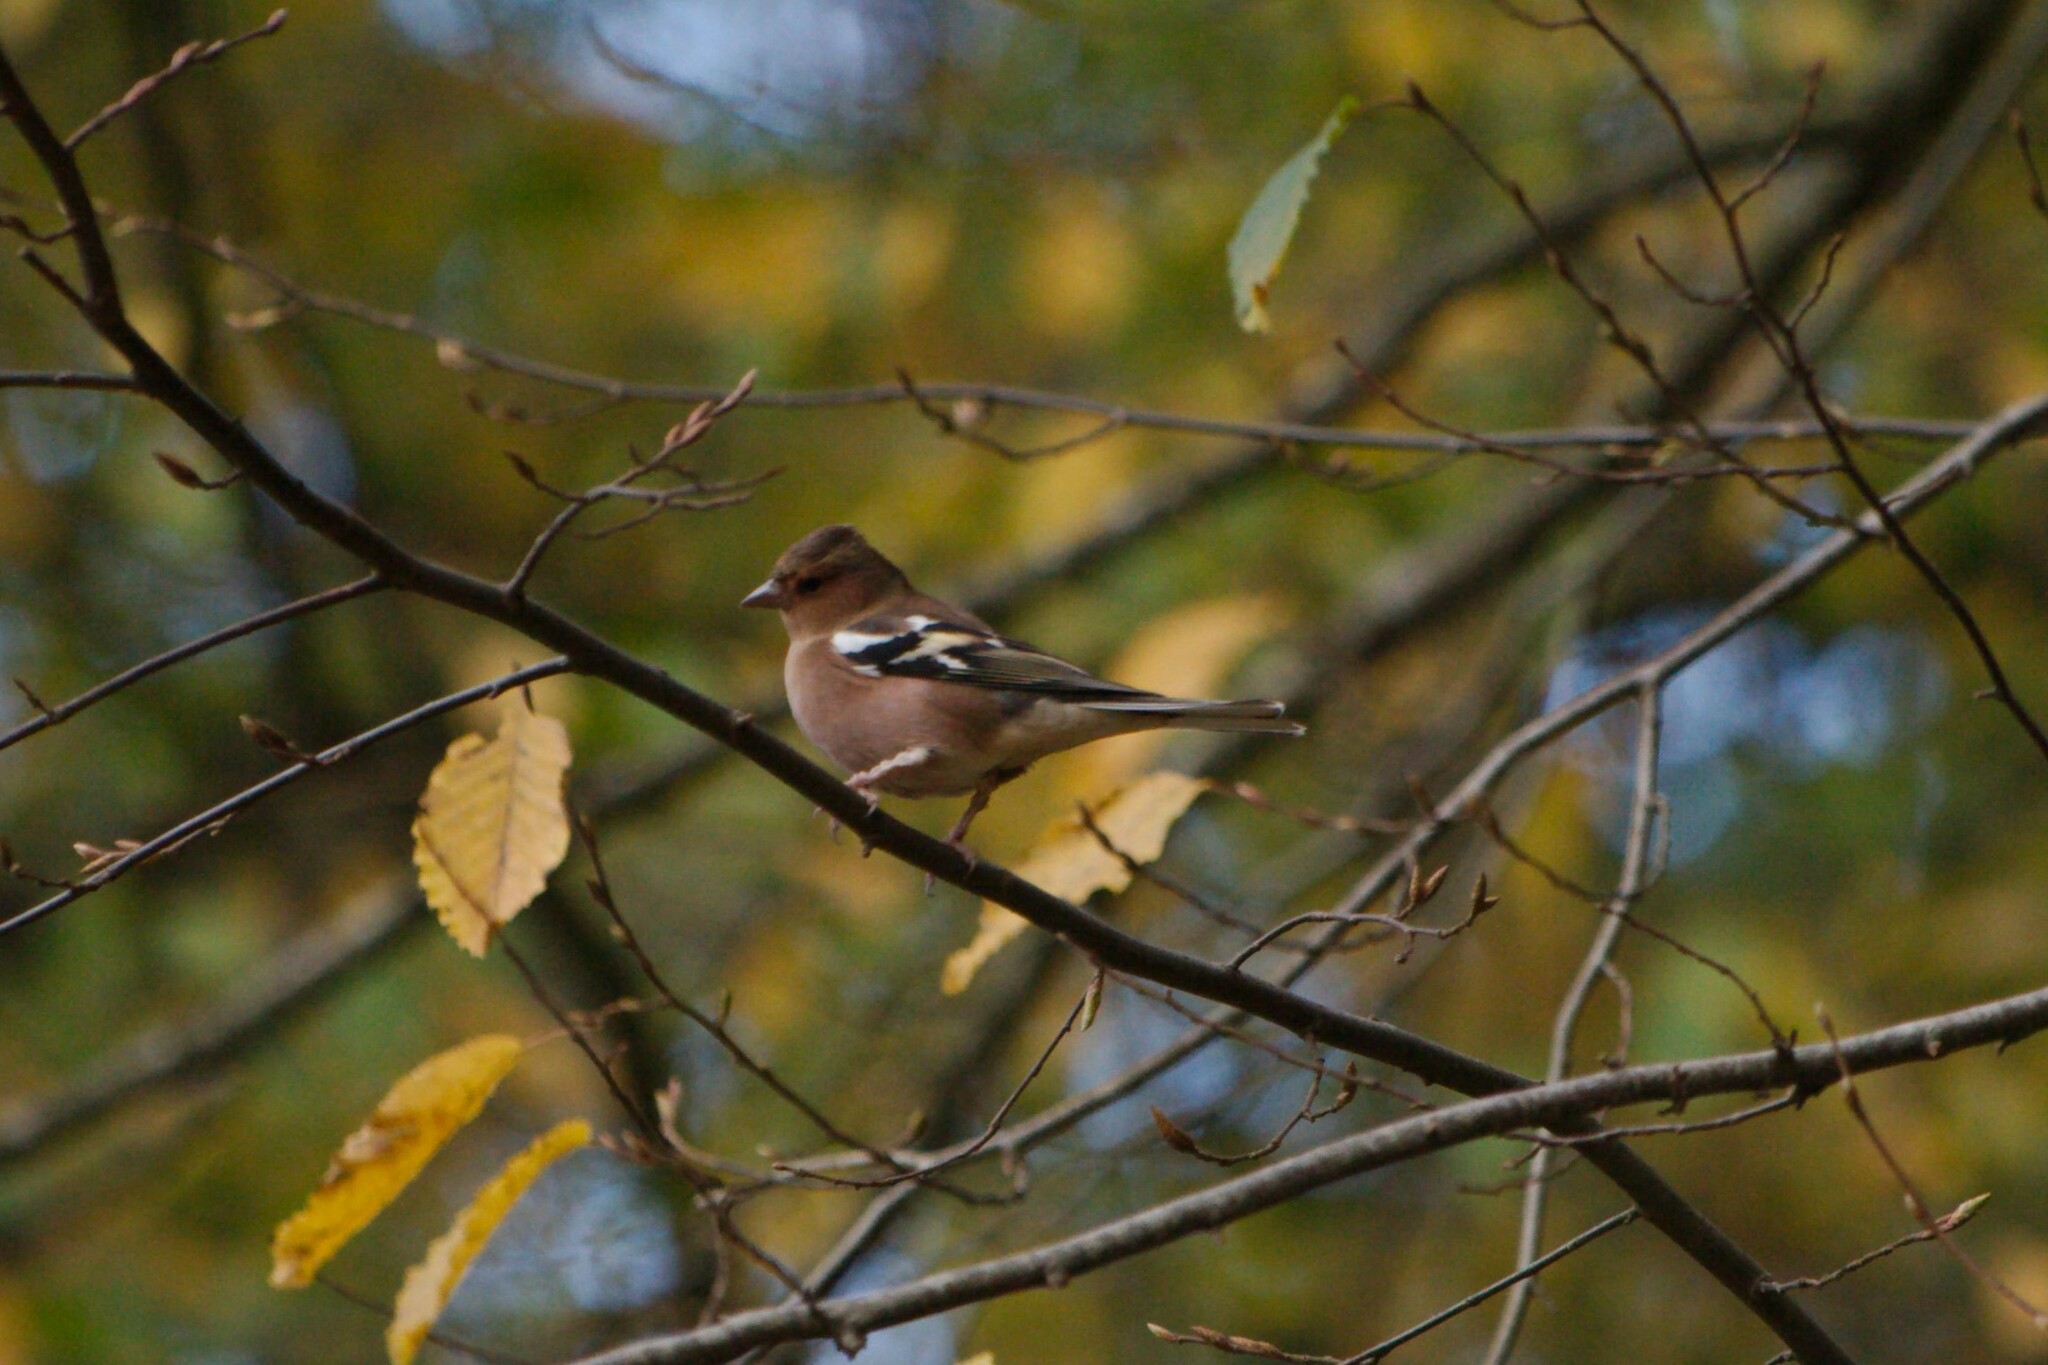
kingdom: Animalia
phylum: Chordata
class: Aves
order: Passeriformes
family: Fringillidae
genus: Fringilla
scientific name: Fringilla coelebs
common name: Common chaffinch
